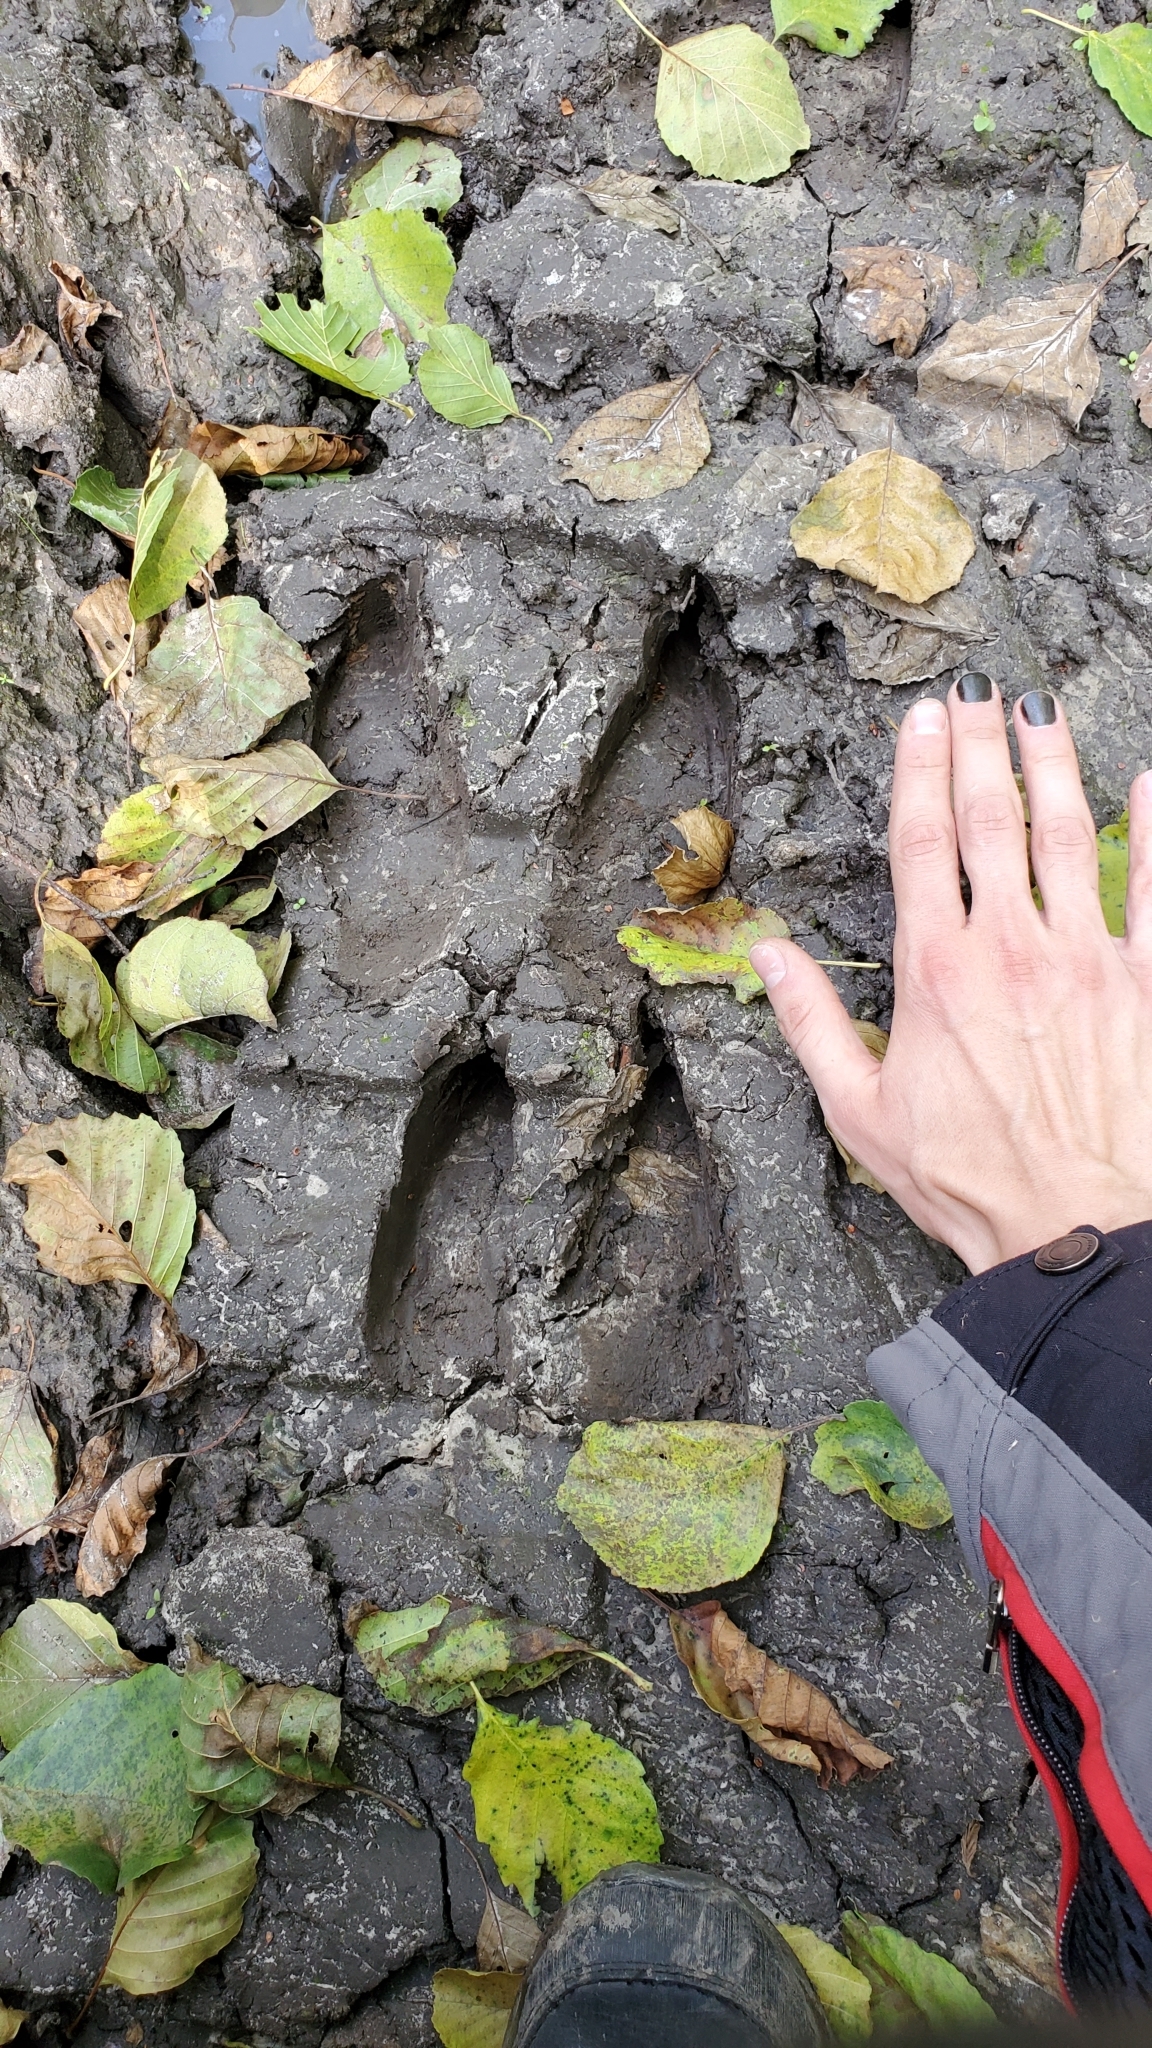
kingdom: Animalia
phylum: Chordata
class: Mammalia
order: Artiodactyla
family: Cervidae
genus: Alces
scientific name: Alces alces
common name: Moose
